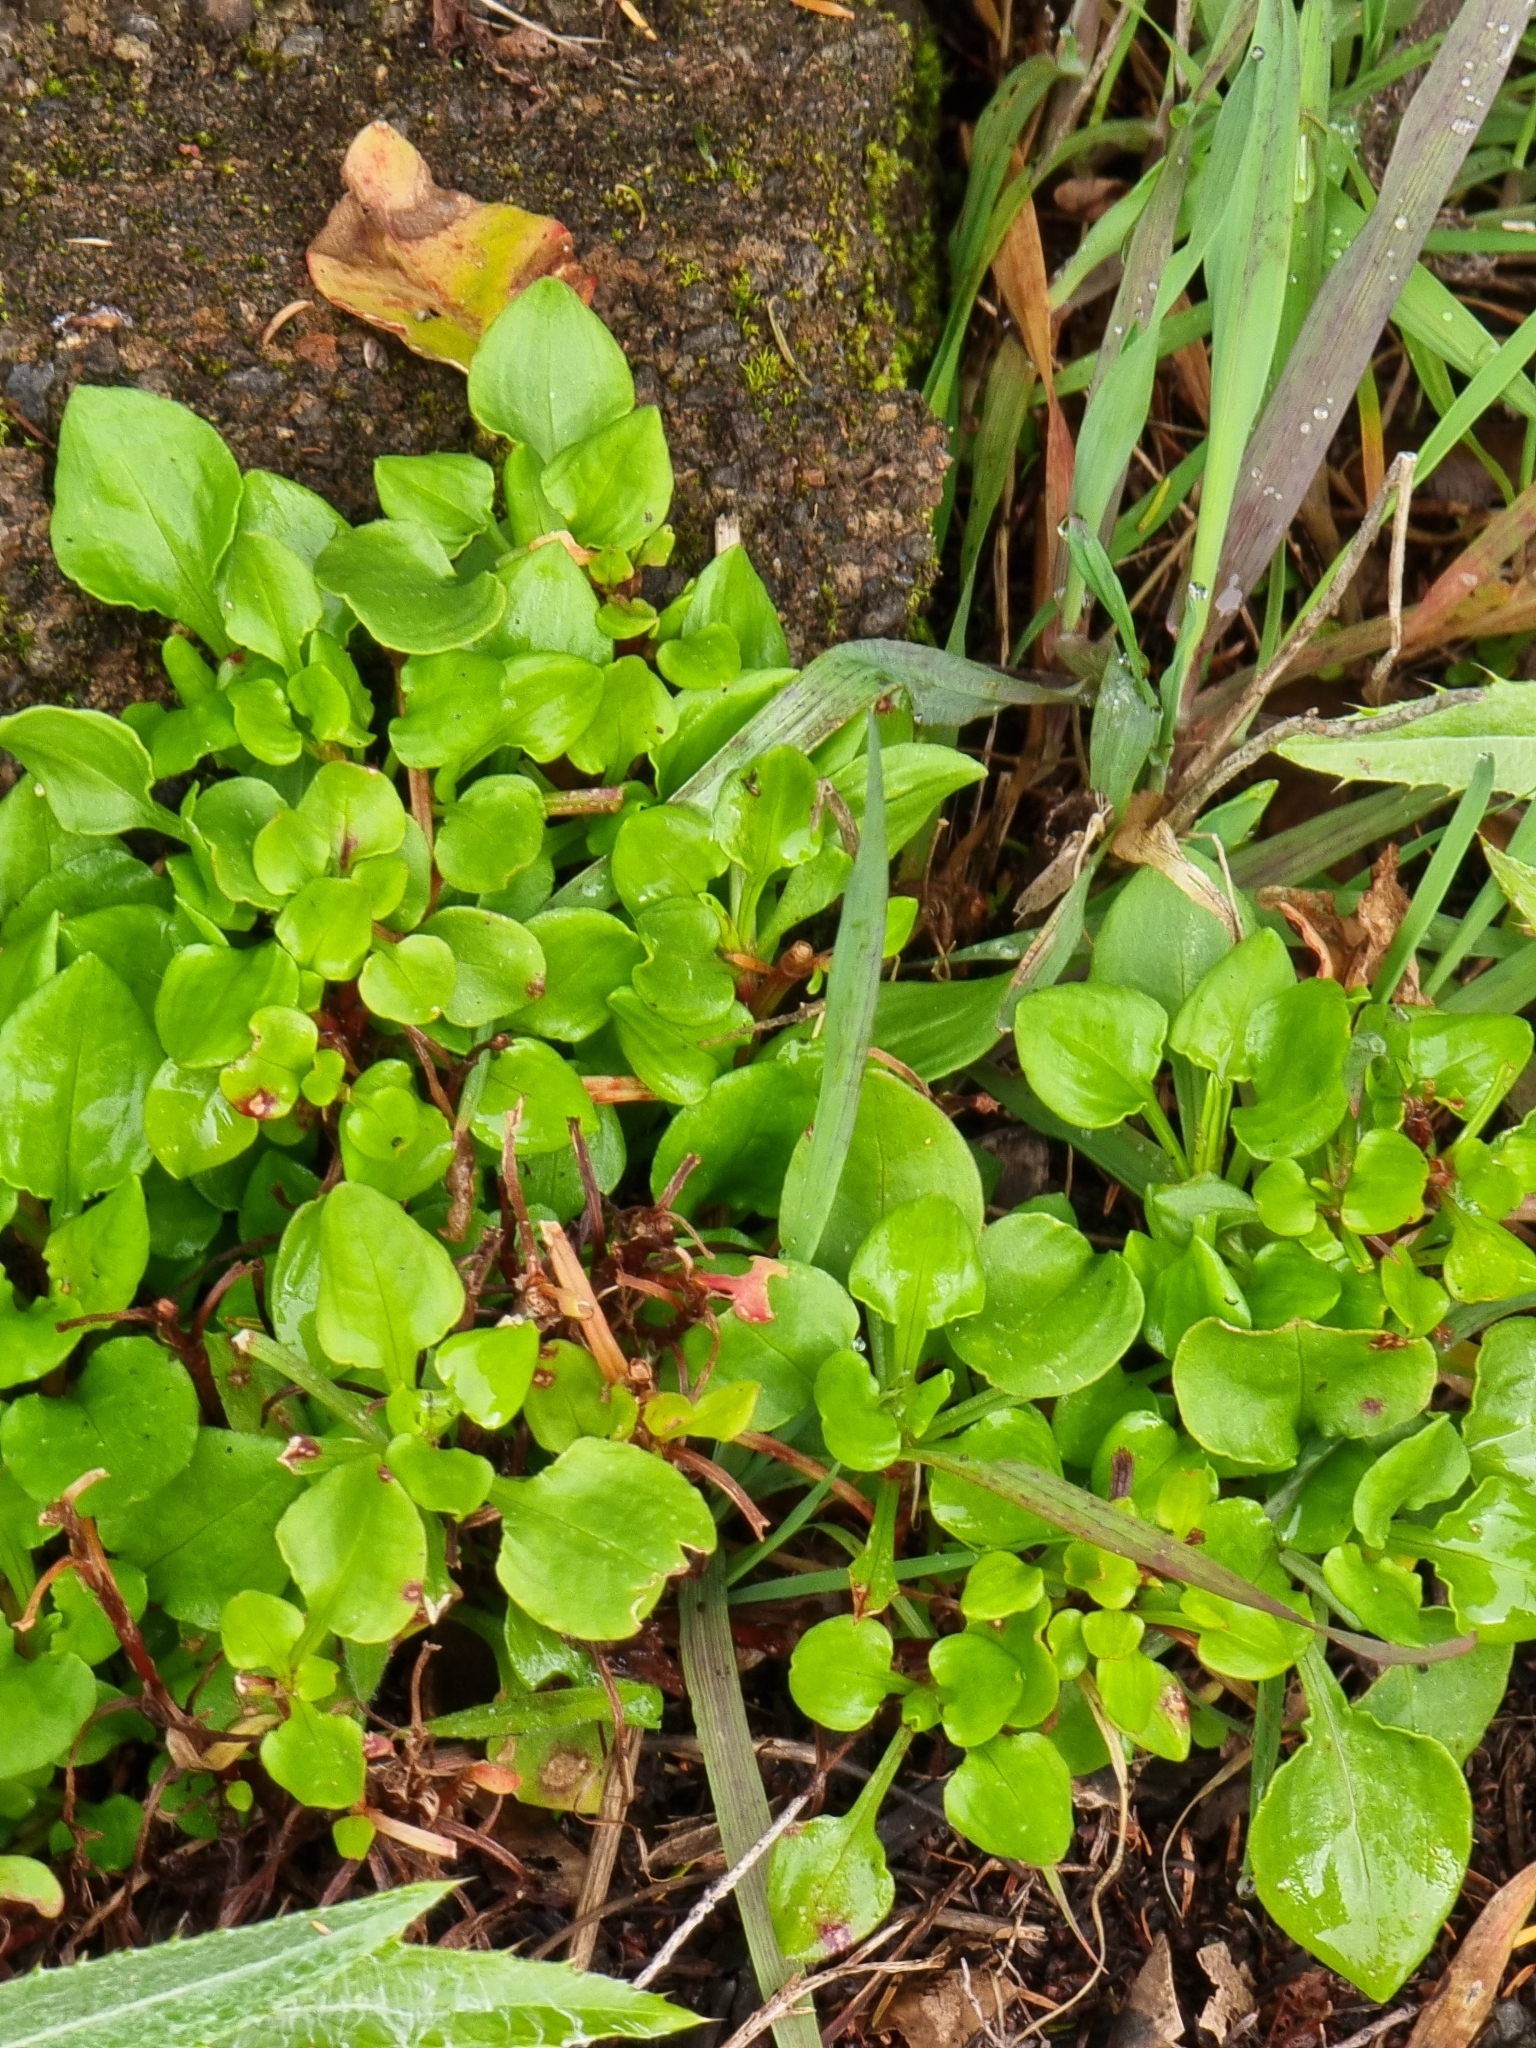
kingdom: Plantae
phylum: Tracheophyta
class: Magnoliopsida
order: Caryophyllales
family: Polygonaceae
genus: Rumex
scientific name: Rumex bucephalophorus
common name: Red dock
